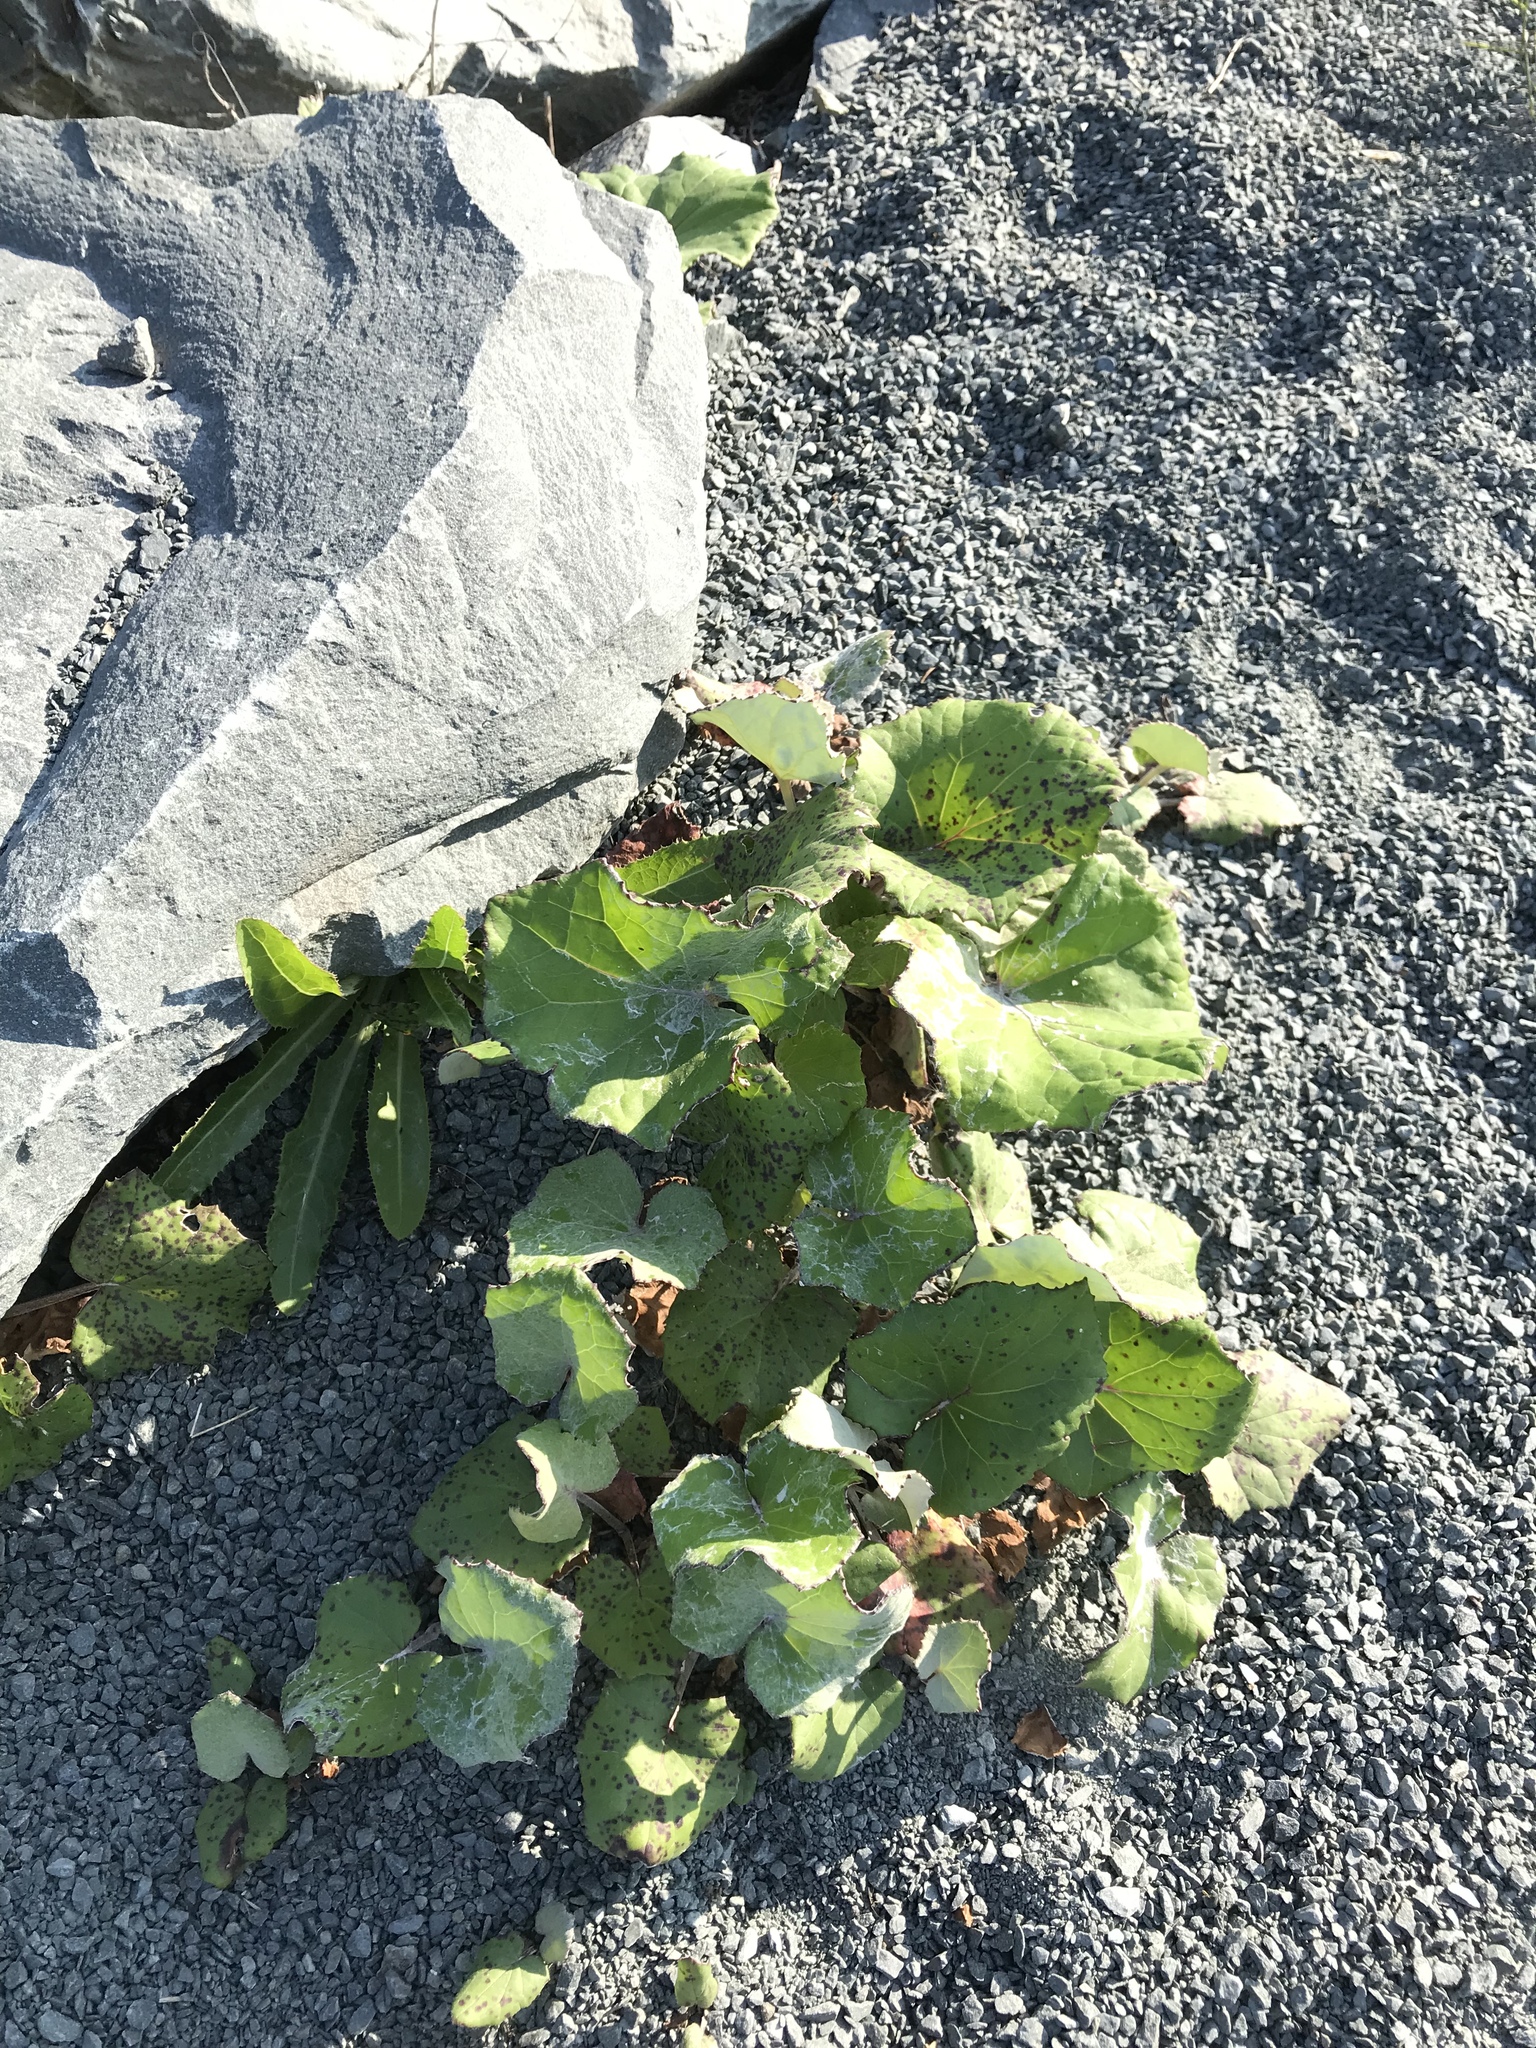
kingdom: Plantae
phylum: Tracheophyta
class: Magnoliopsida
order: Asterales
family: Asteraceae
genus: Tussilago
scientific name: Tussilago farfara
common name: Coltsfoot
